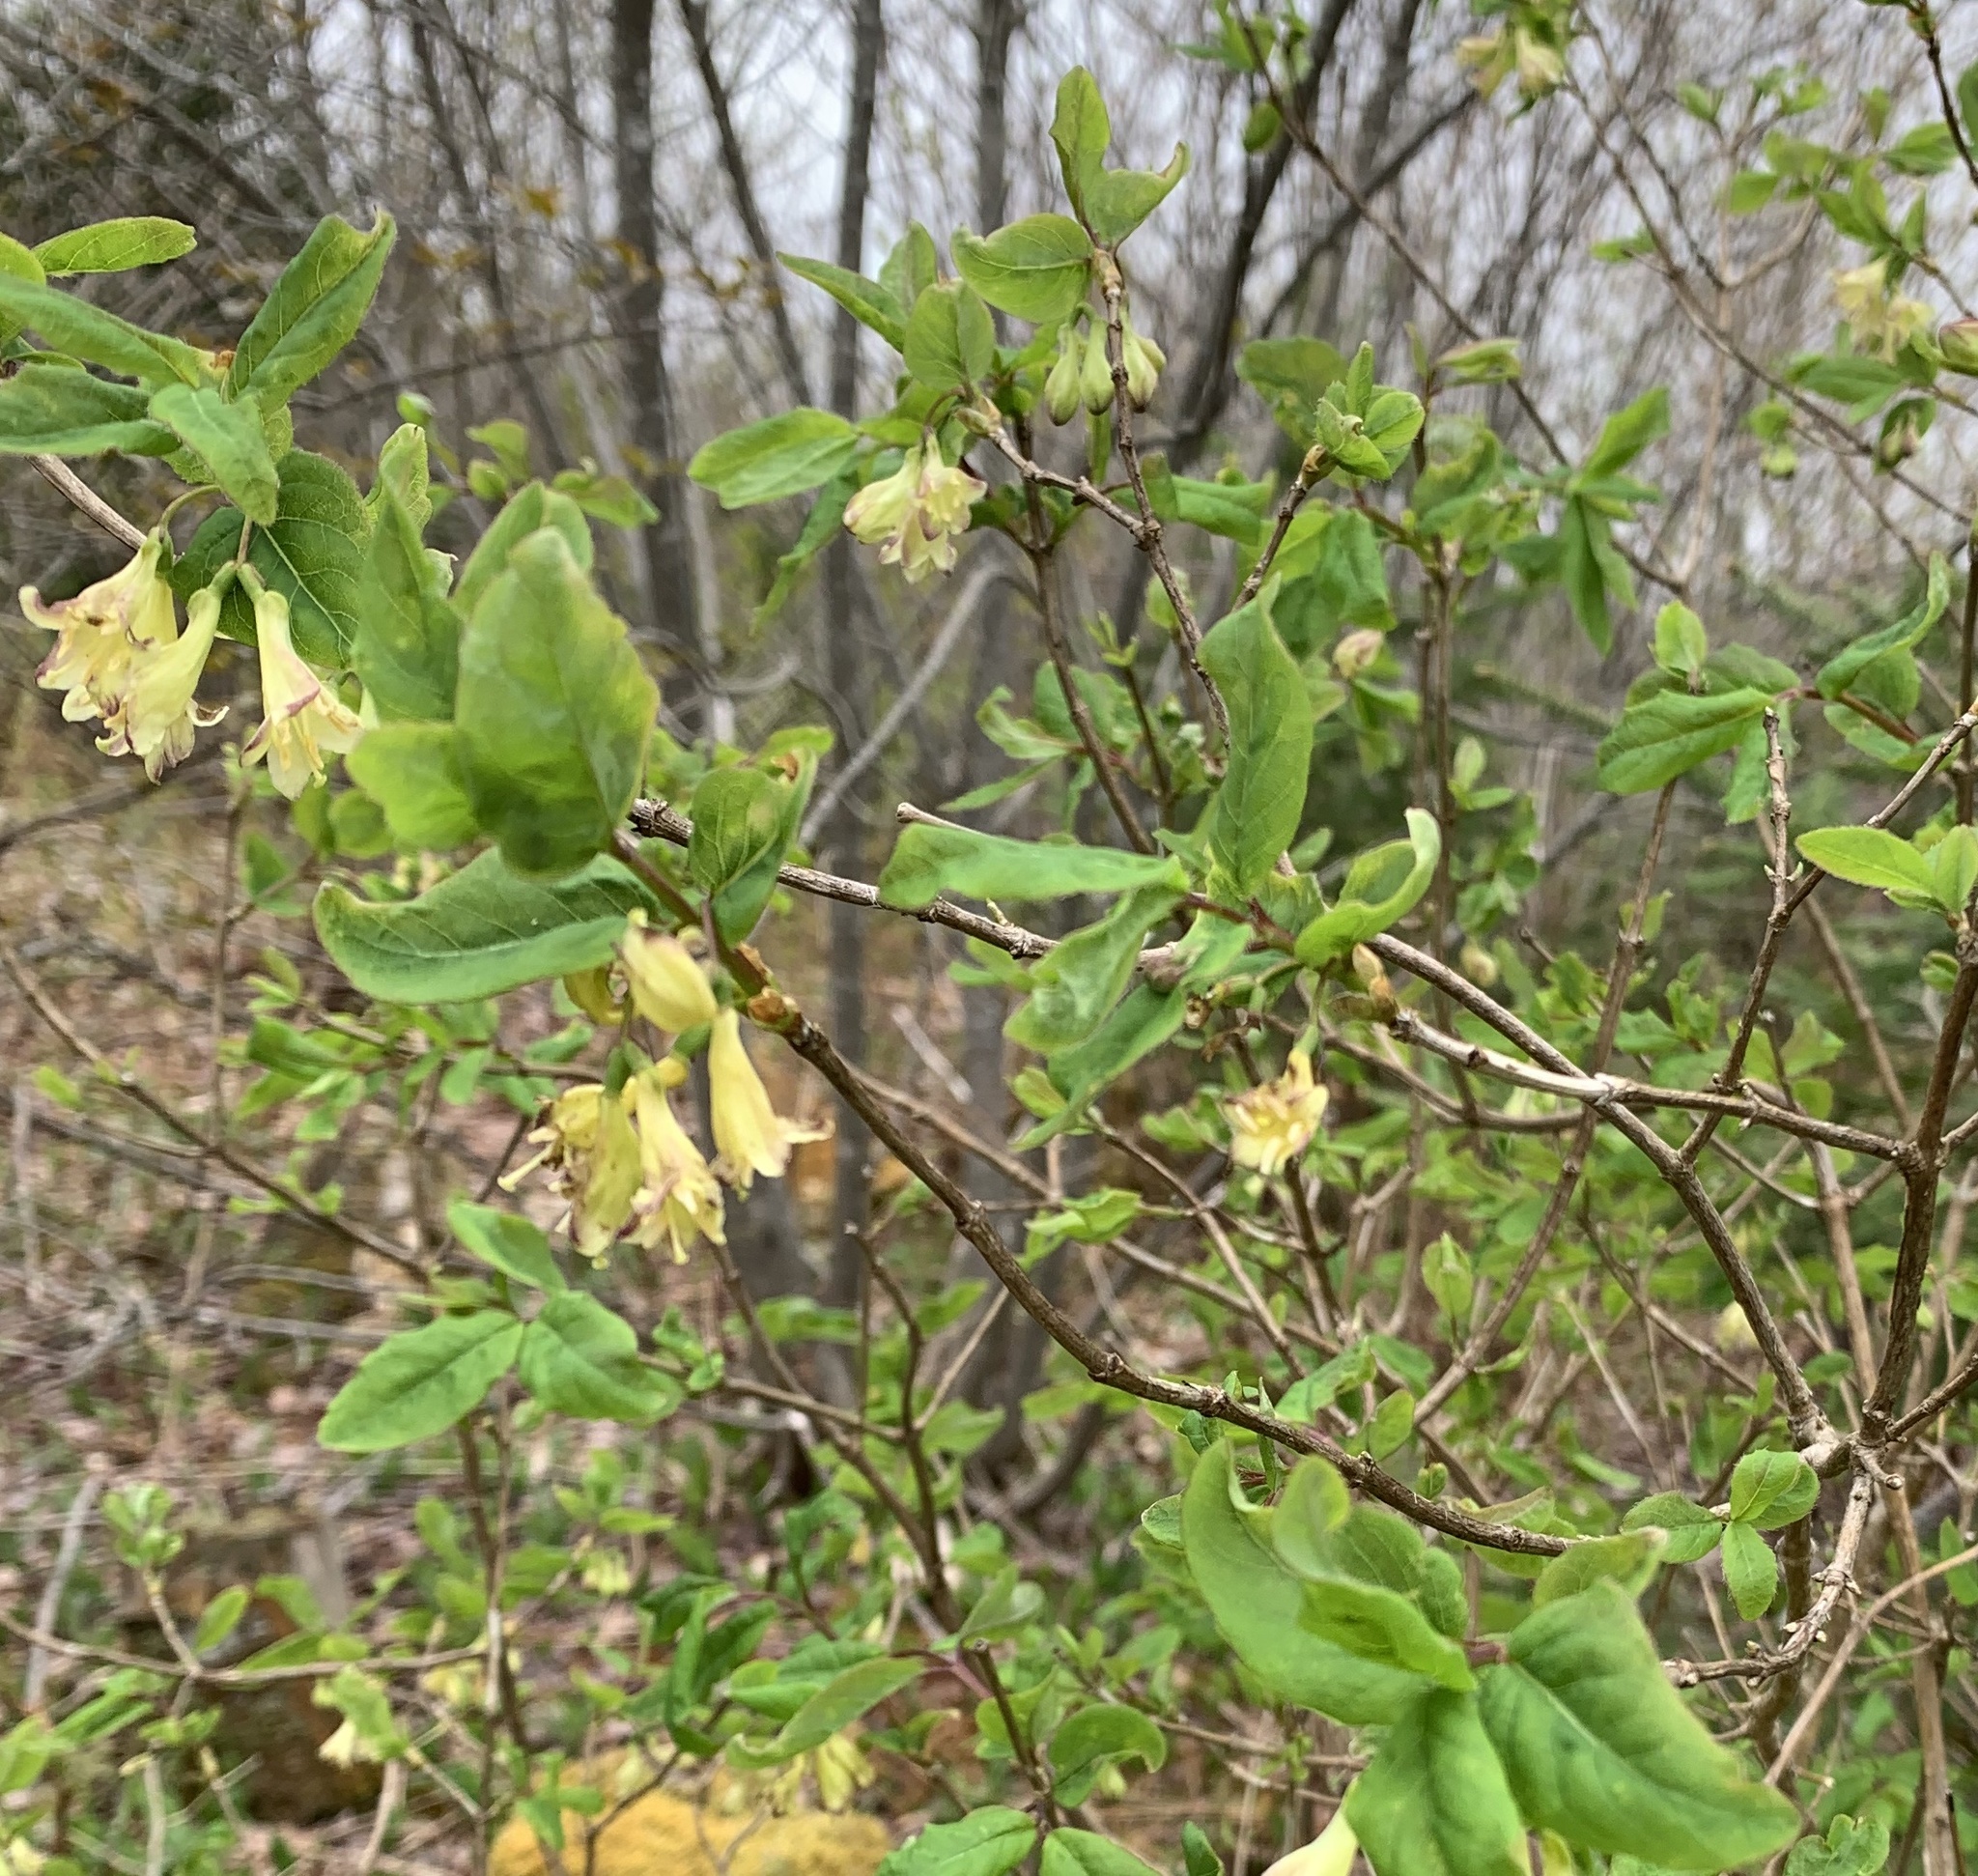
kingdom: Plantae
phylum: Tracheophyta
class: Magnoliopsida
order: Dipsacales
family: Caprifoliaceae
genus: Lonicera
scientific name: Lonicera canadensis
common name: American fly-honeysuckle
